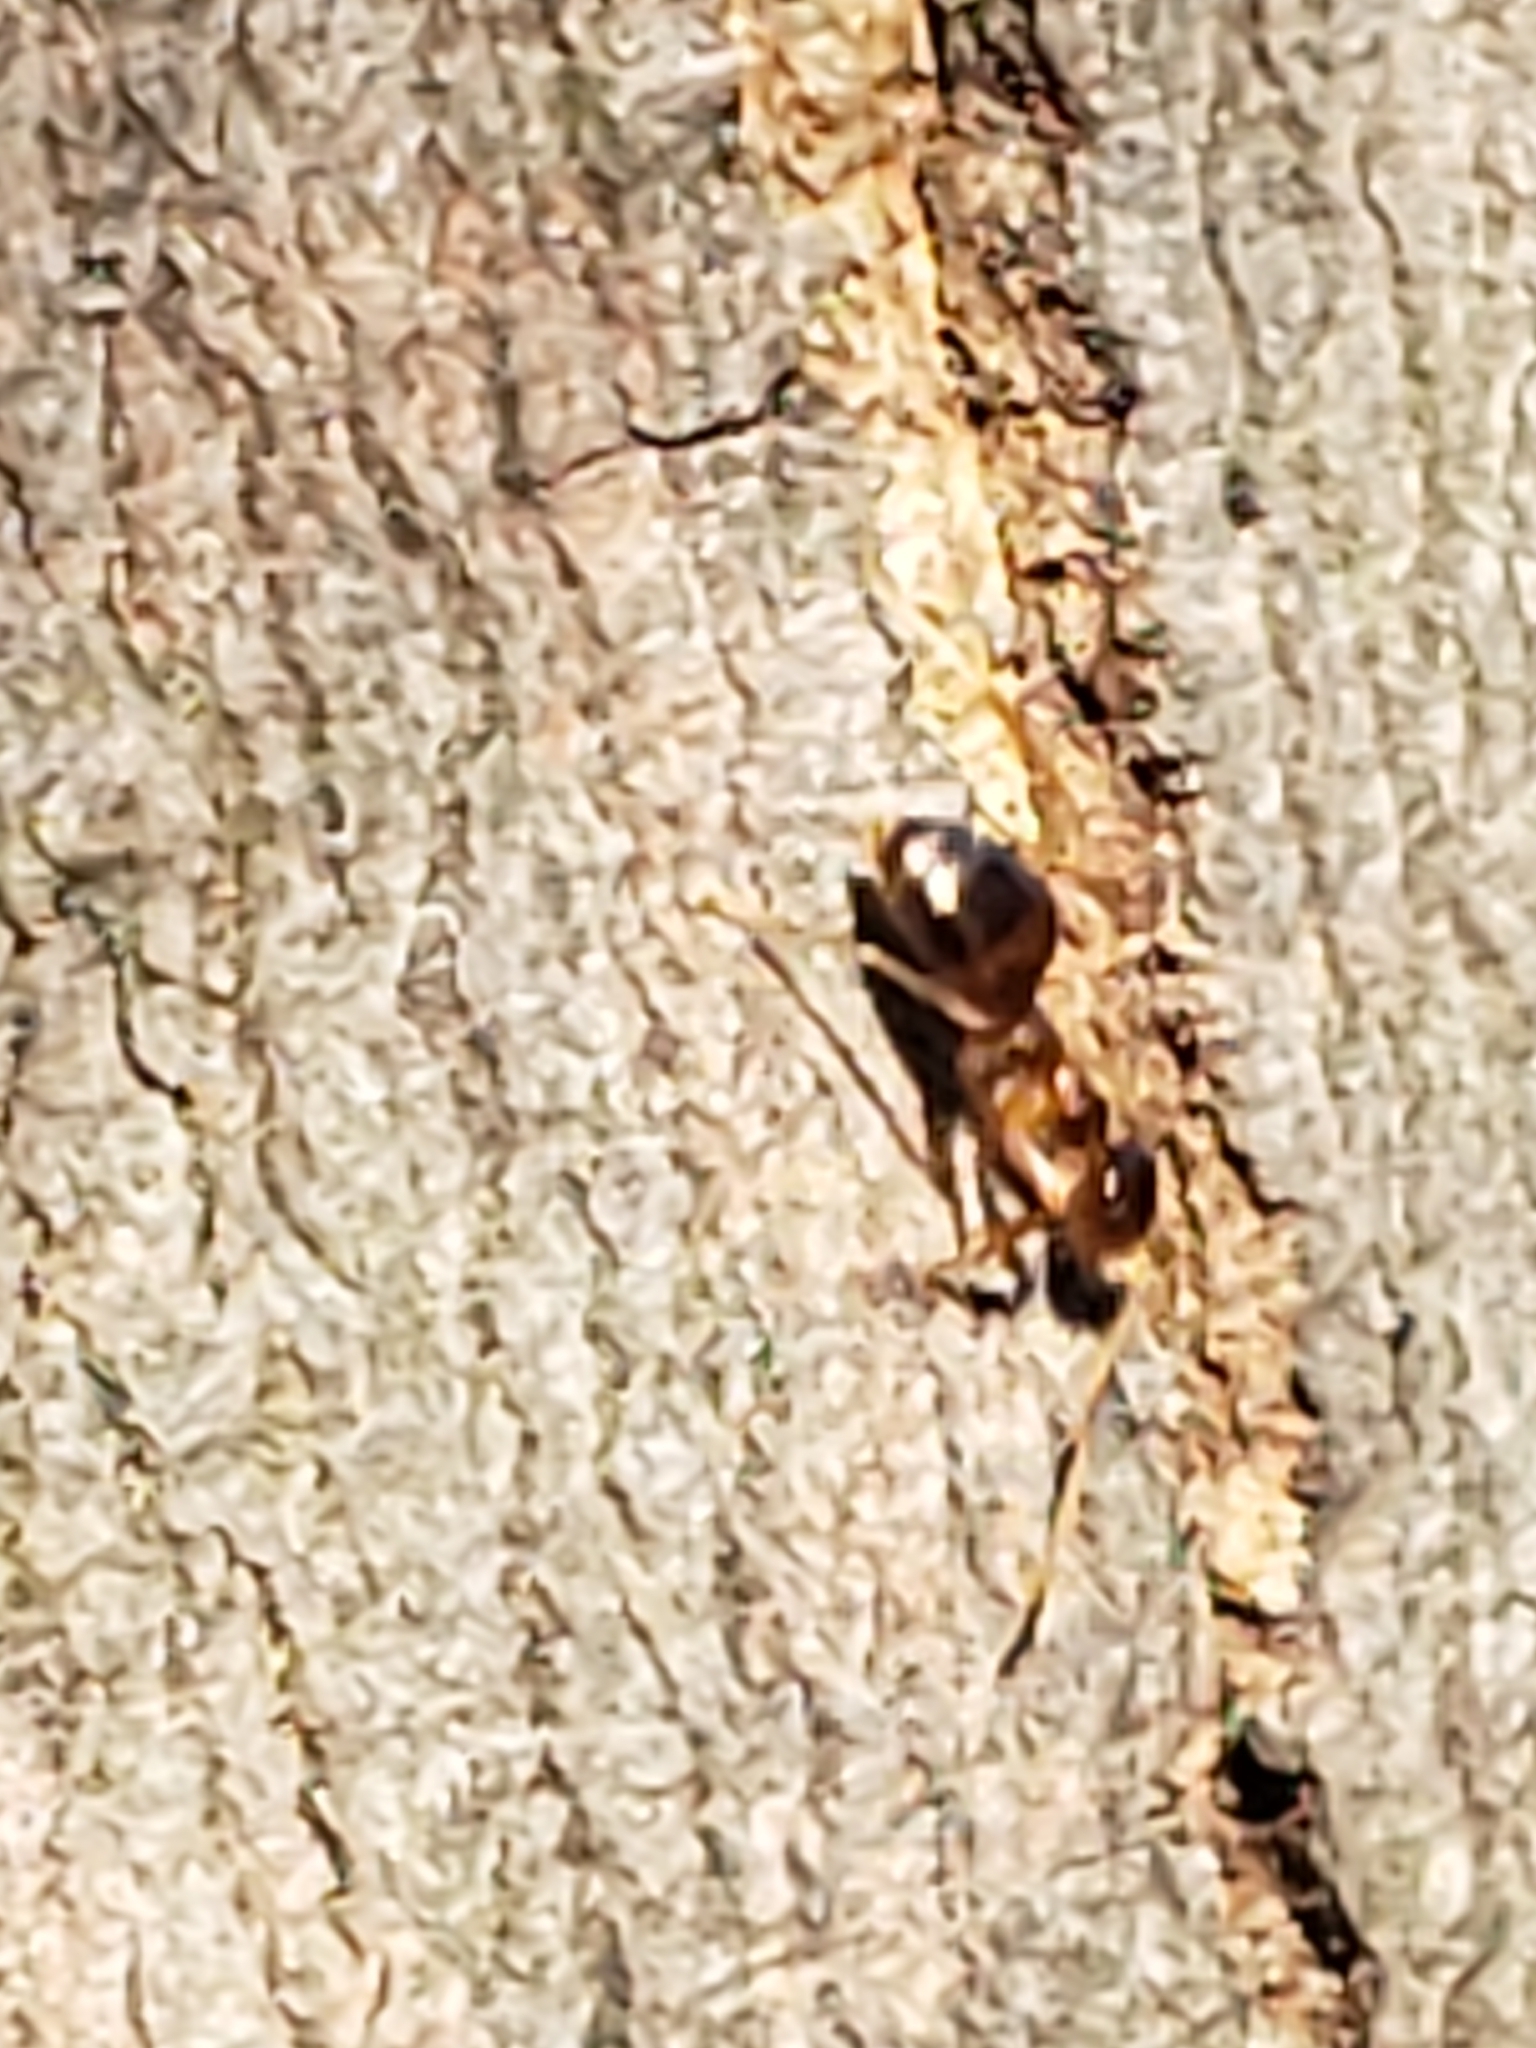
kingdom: Animalia
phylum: Arthropoda
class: Insecta
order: Hymenoptera
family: Formicidae
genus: Prenolepis
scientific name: Prenolepis imparis
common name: Small honey ant
